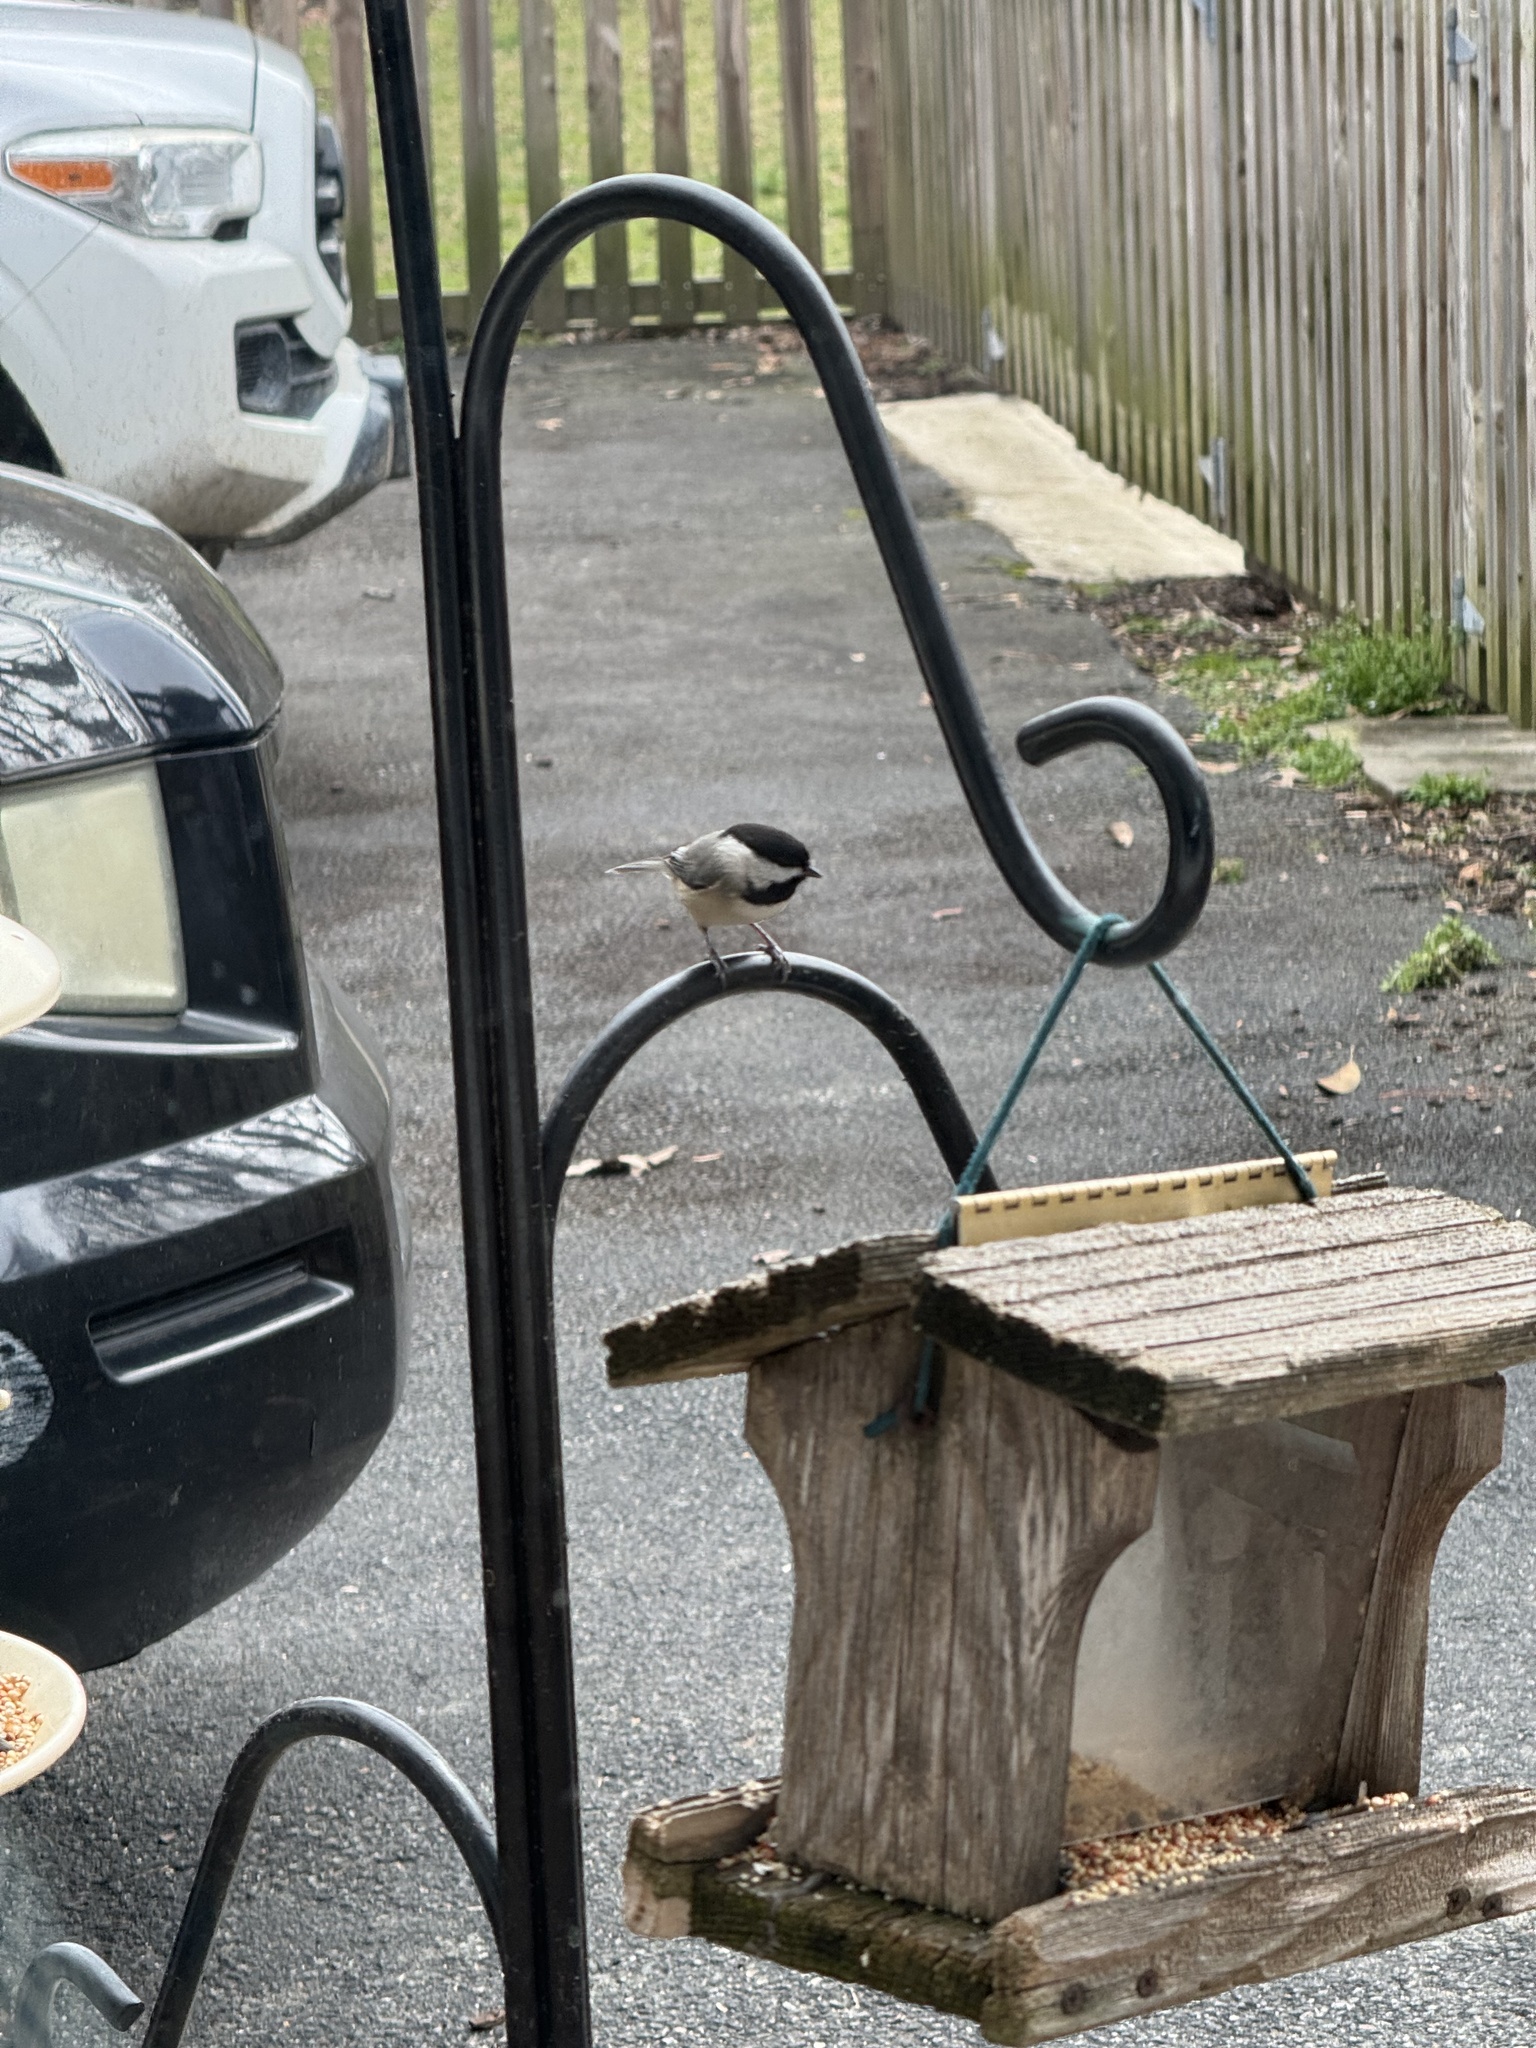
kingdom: Animalia
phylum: Chordata
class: Aves
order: Passeriformes
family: Paridae
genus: Poecile
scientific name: Poecile carolinensis
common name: Carolina chickadee
